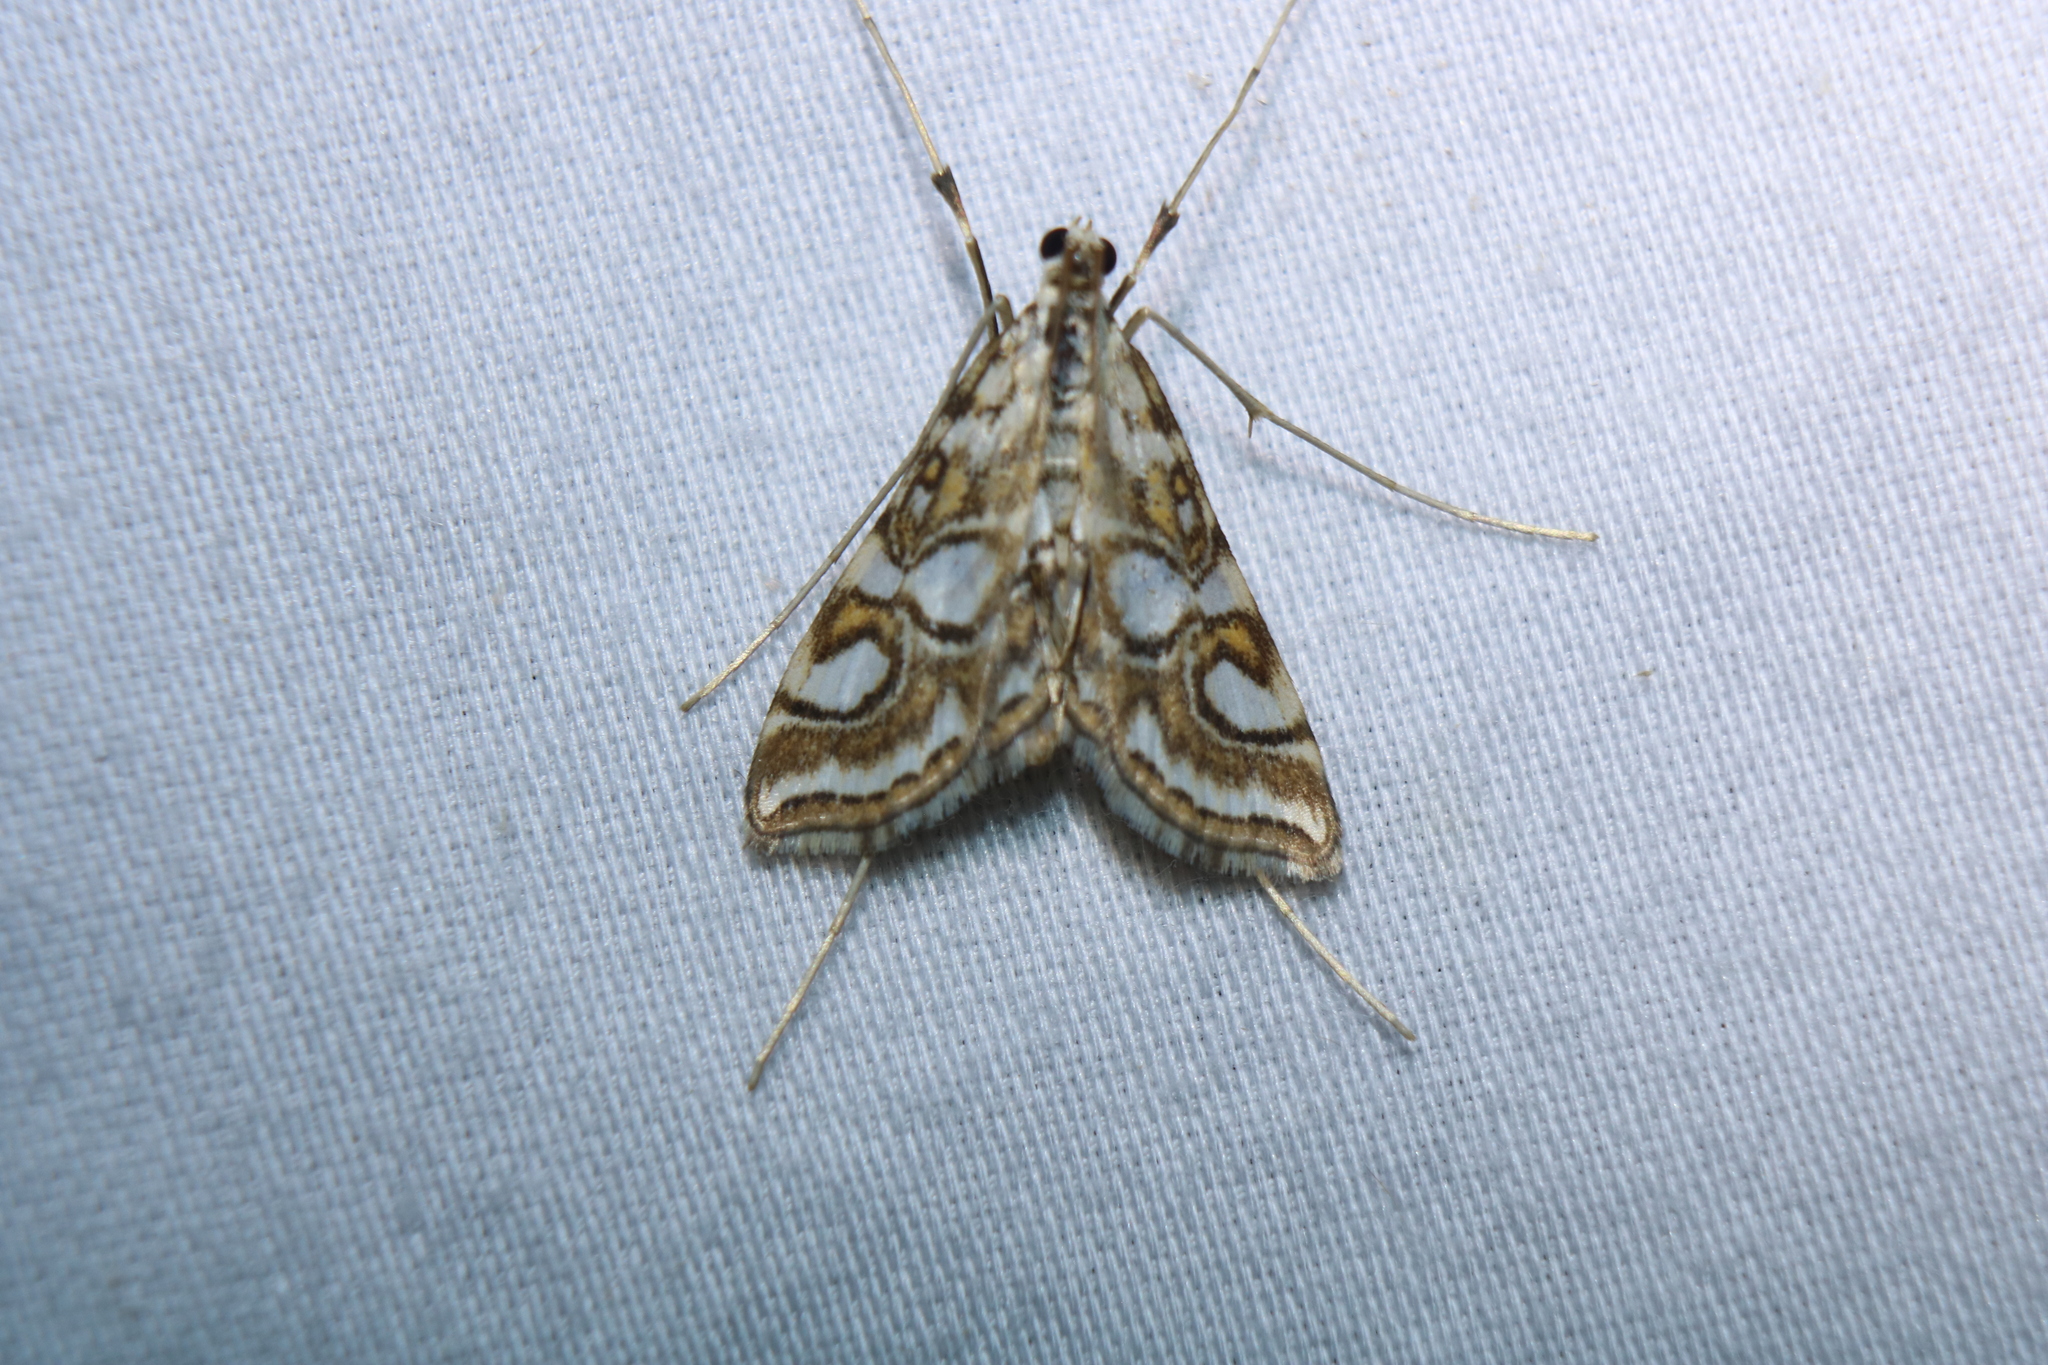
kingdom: Animalia
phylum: Arthropoda
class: Insecta
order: Lepidoptera
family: Crambidae
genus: Elophila
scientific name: Elophila ekthlipsis
